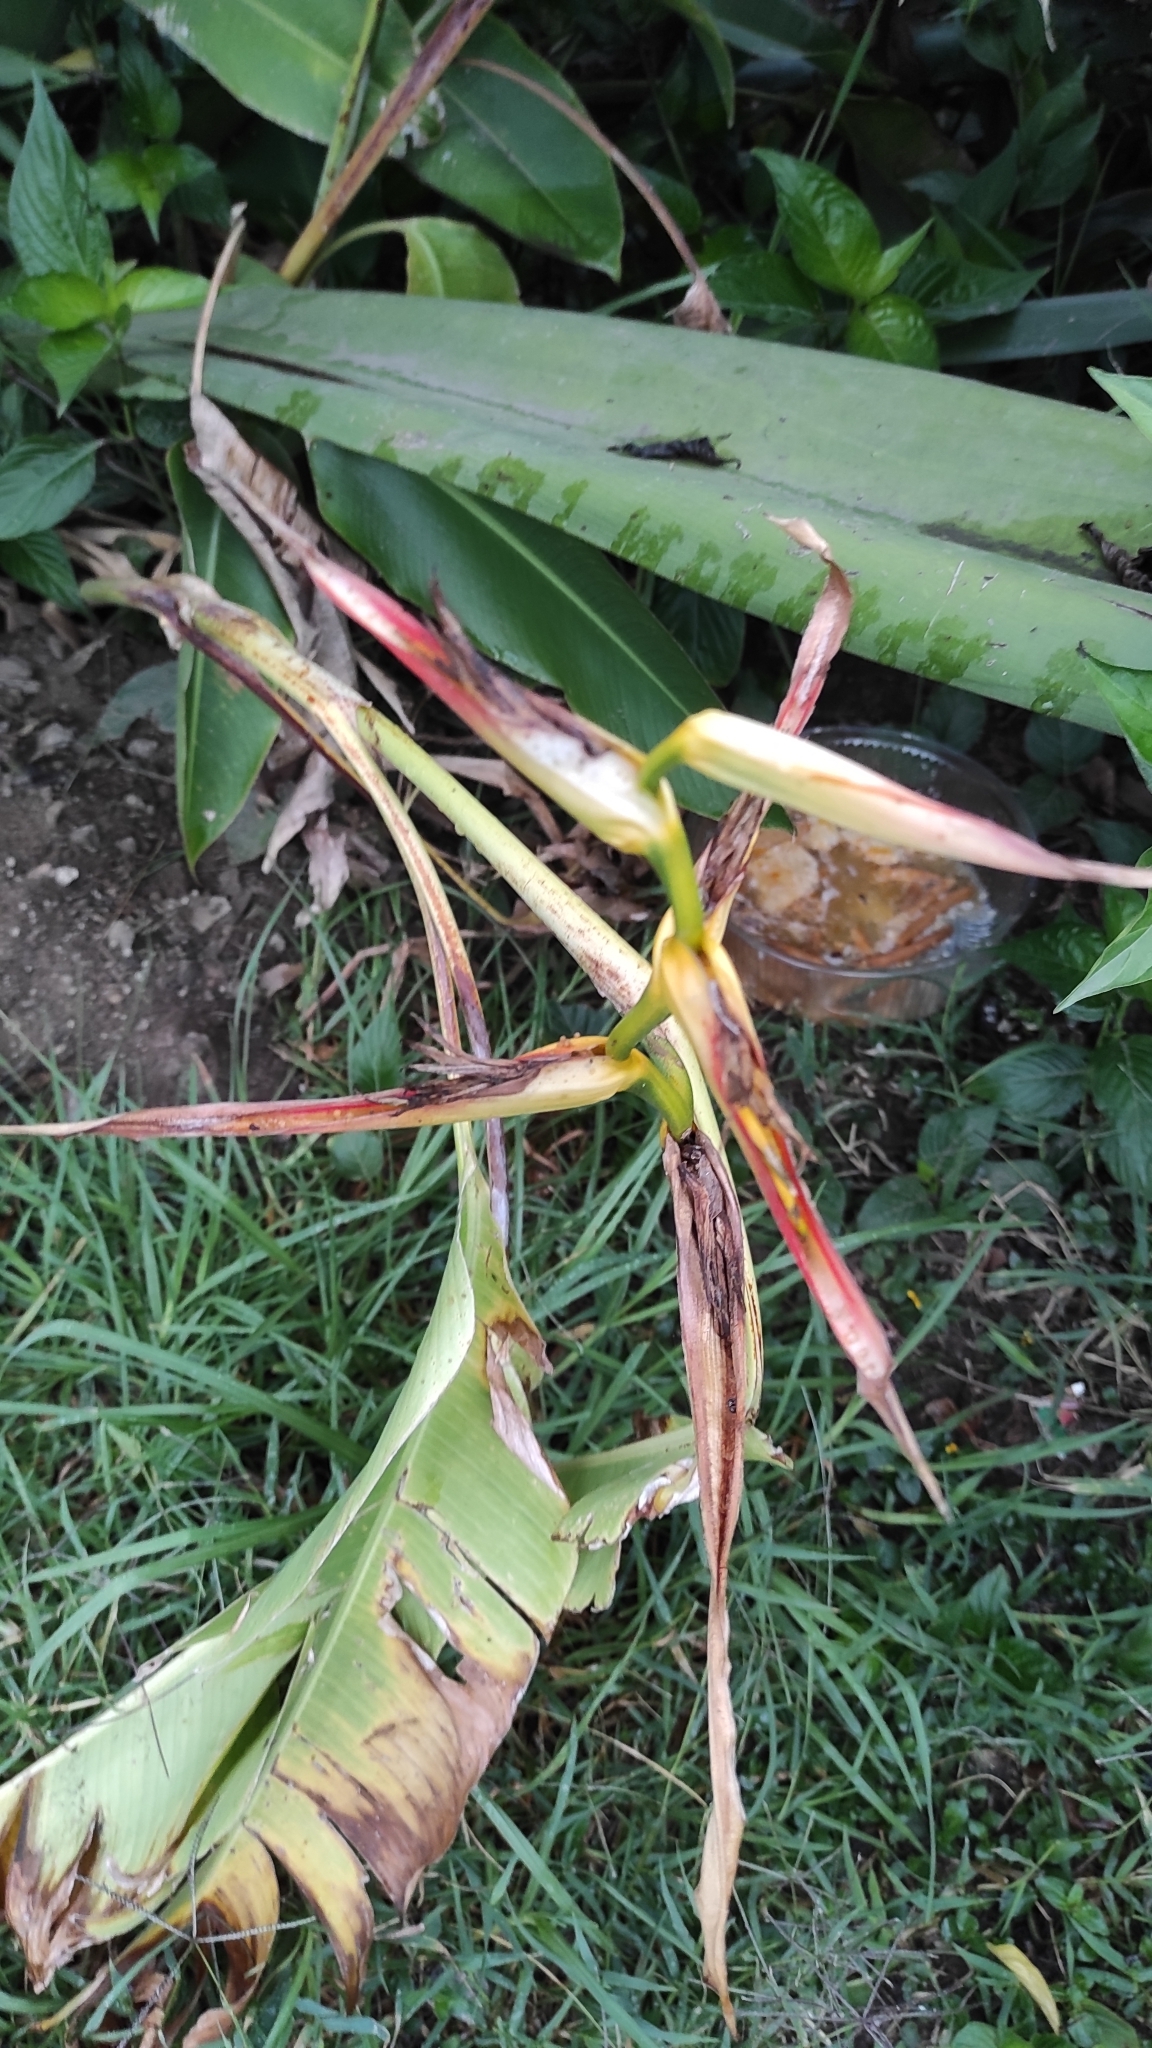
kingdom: Plantae
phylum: Tracheophyta
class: Liliopsida
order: Zingiberales
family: Heliconiaceae
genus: Heliconia
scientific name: Heliconia latispatha
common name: Expanded lobsterclaw
